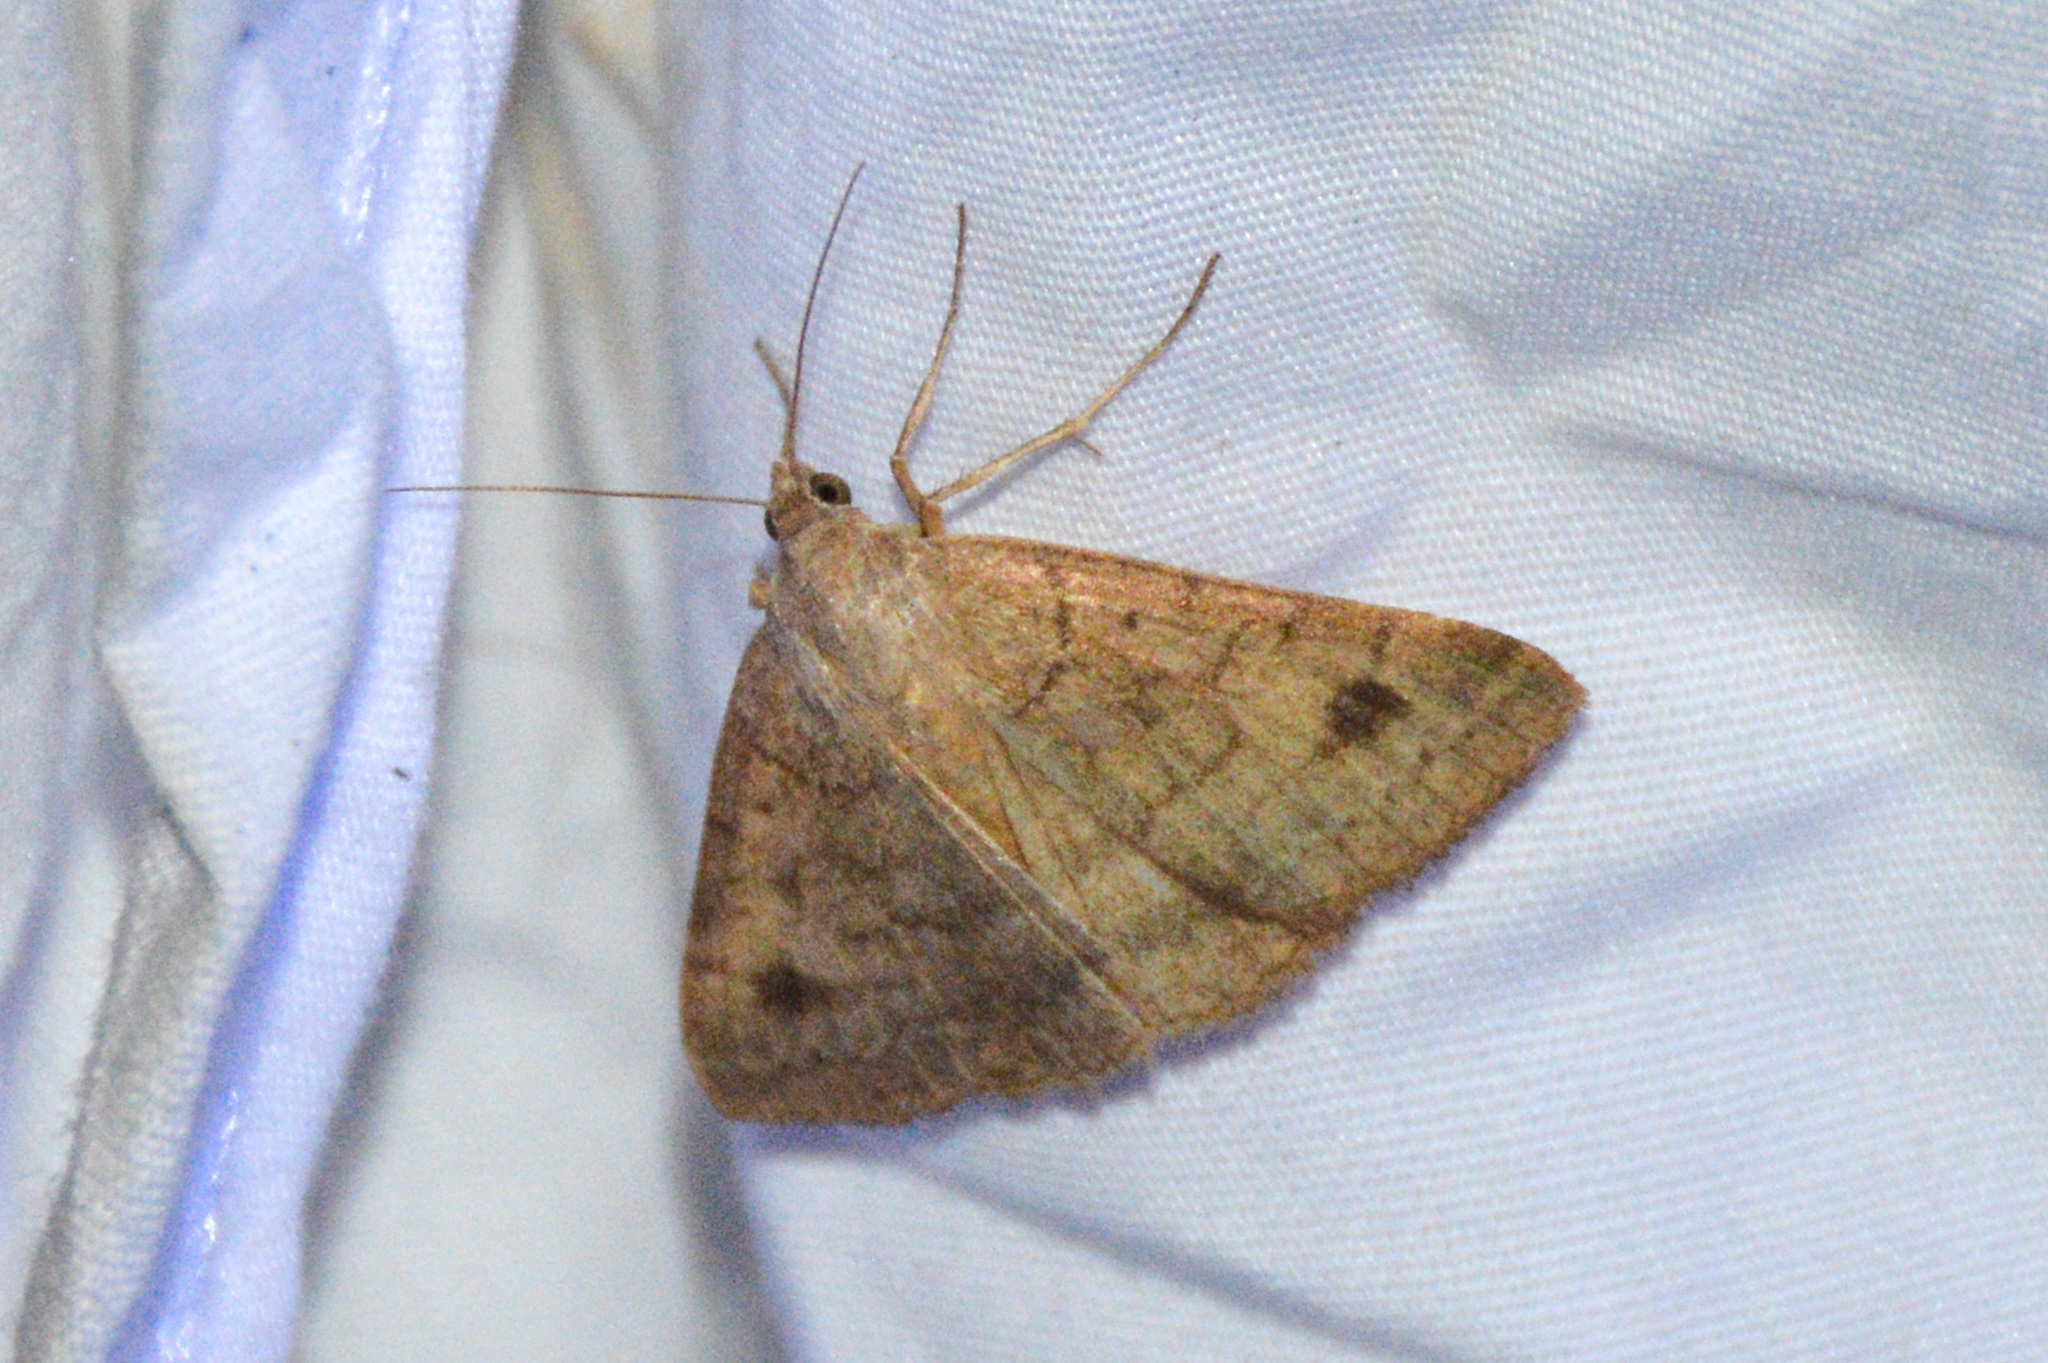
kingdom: Animalia
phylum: Arthropoda
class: Insecta
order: Lepidoptera
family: Erebidae
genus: Caenurgia
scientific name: Caenurgia chloropha
